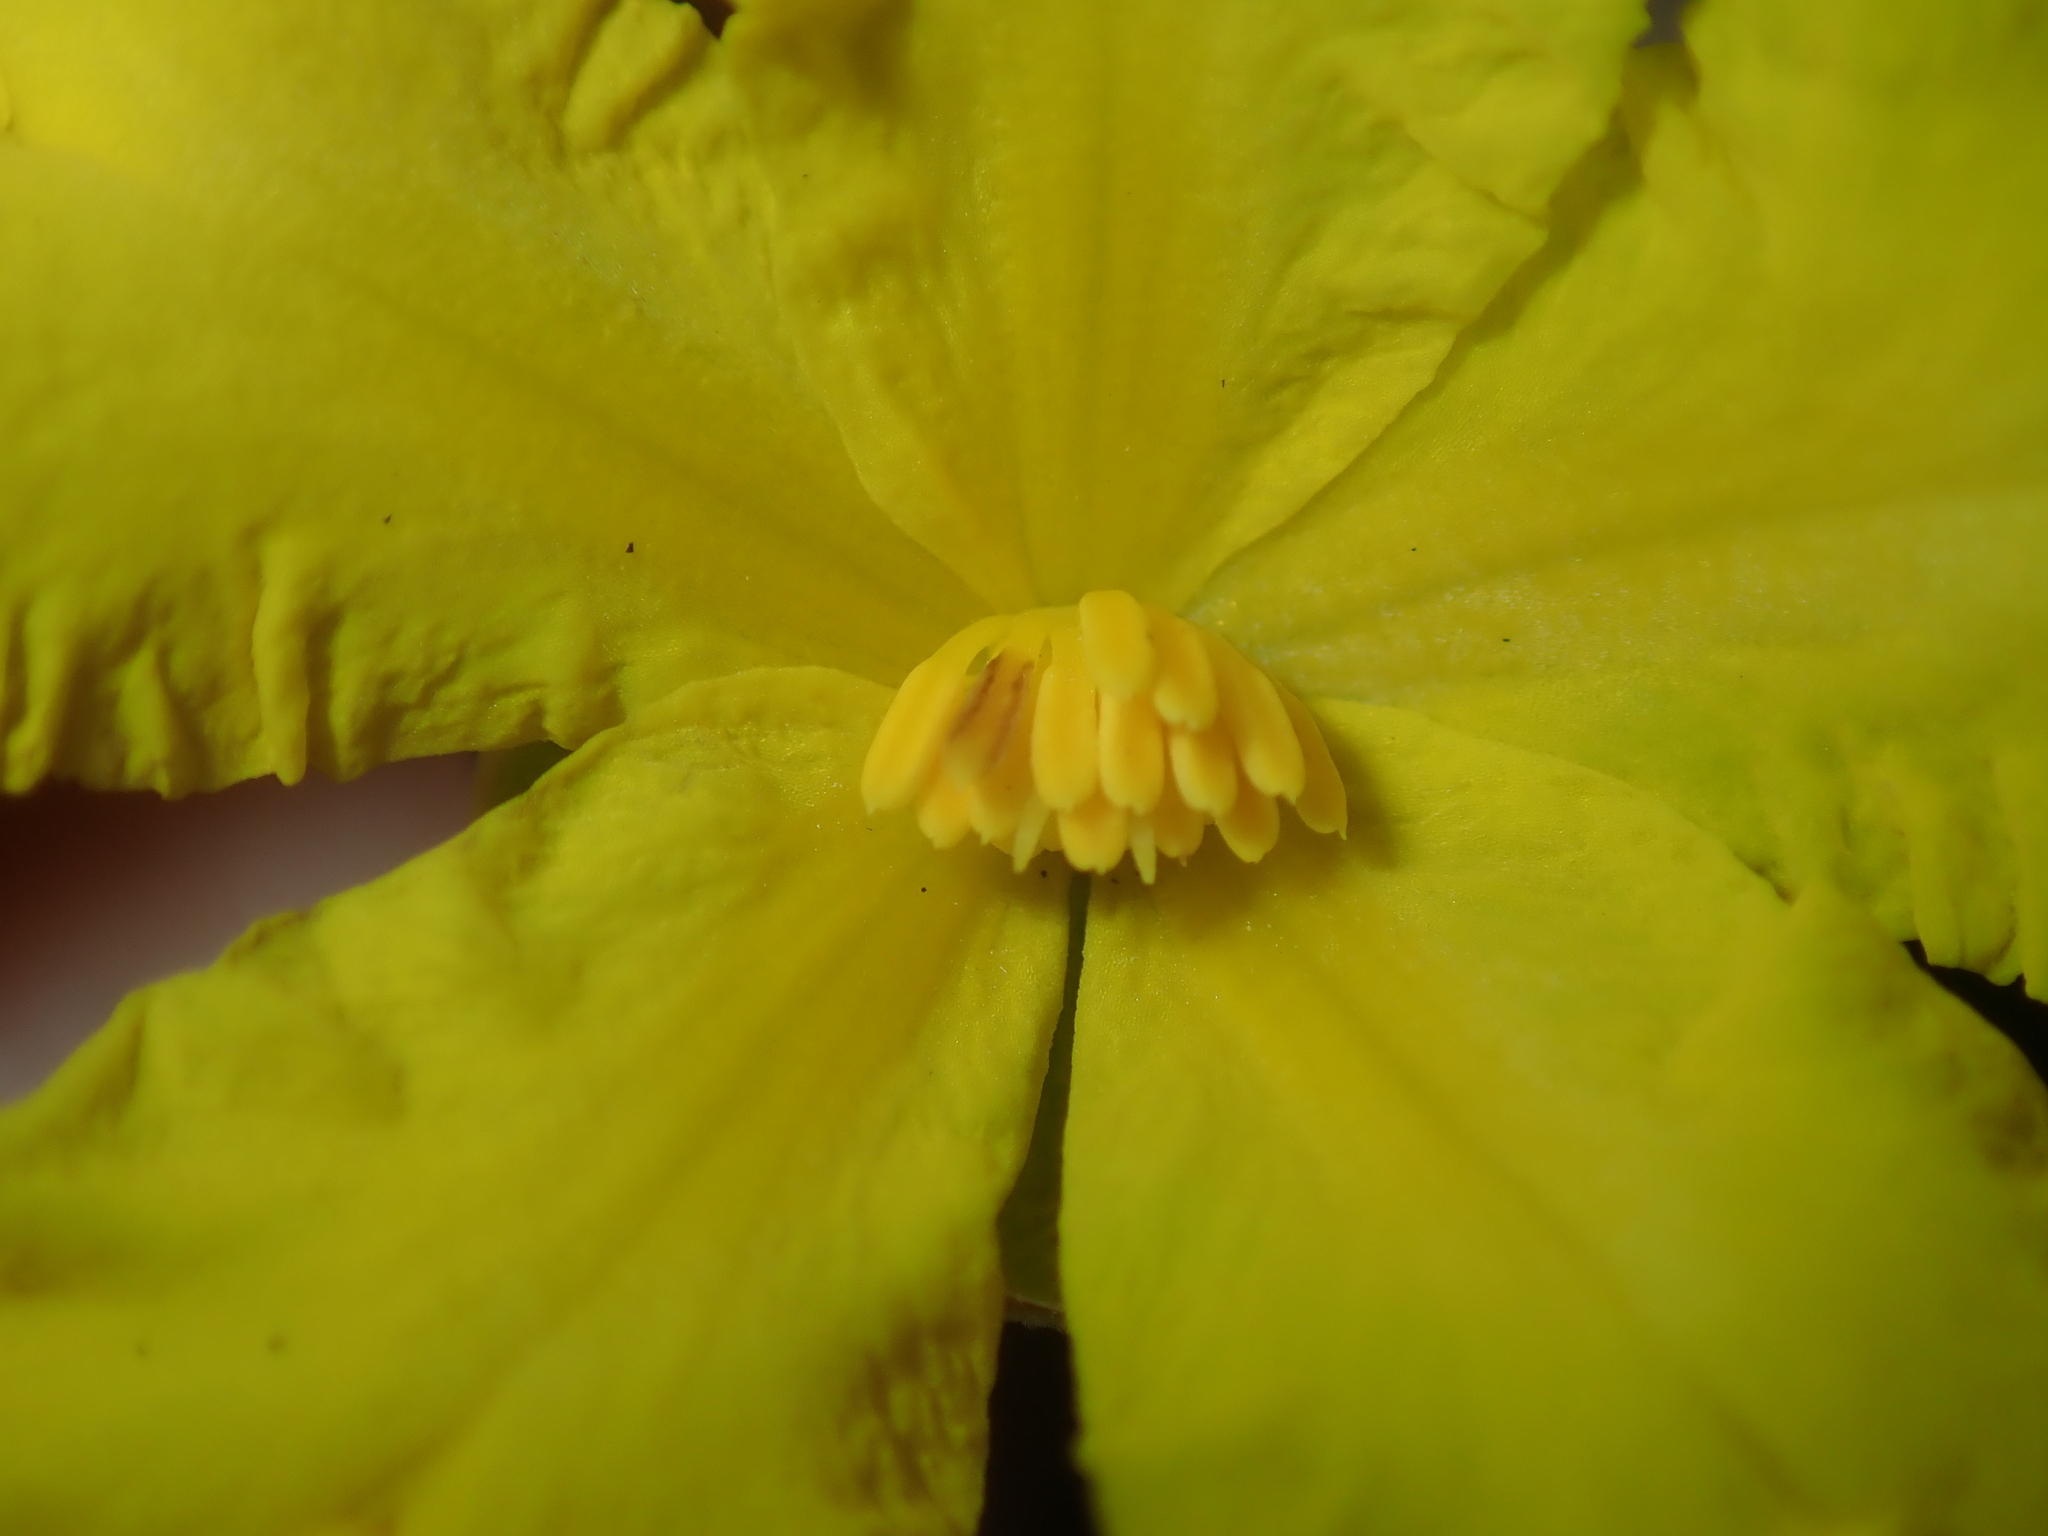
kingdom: Plantae
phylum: Tracheophyta
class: Magnoliopsida
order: Dilleniales
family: Dilleniaceae
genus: Hibbertia
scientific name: Hibbertia hypericoides
